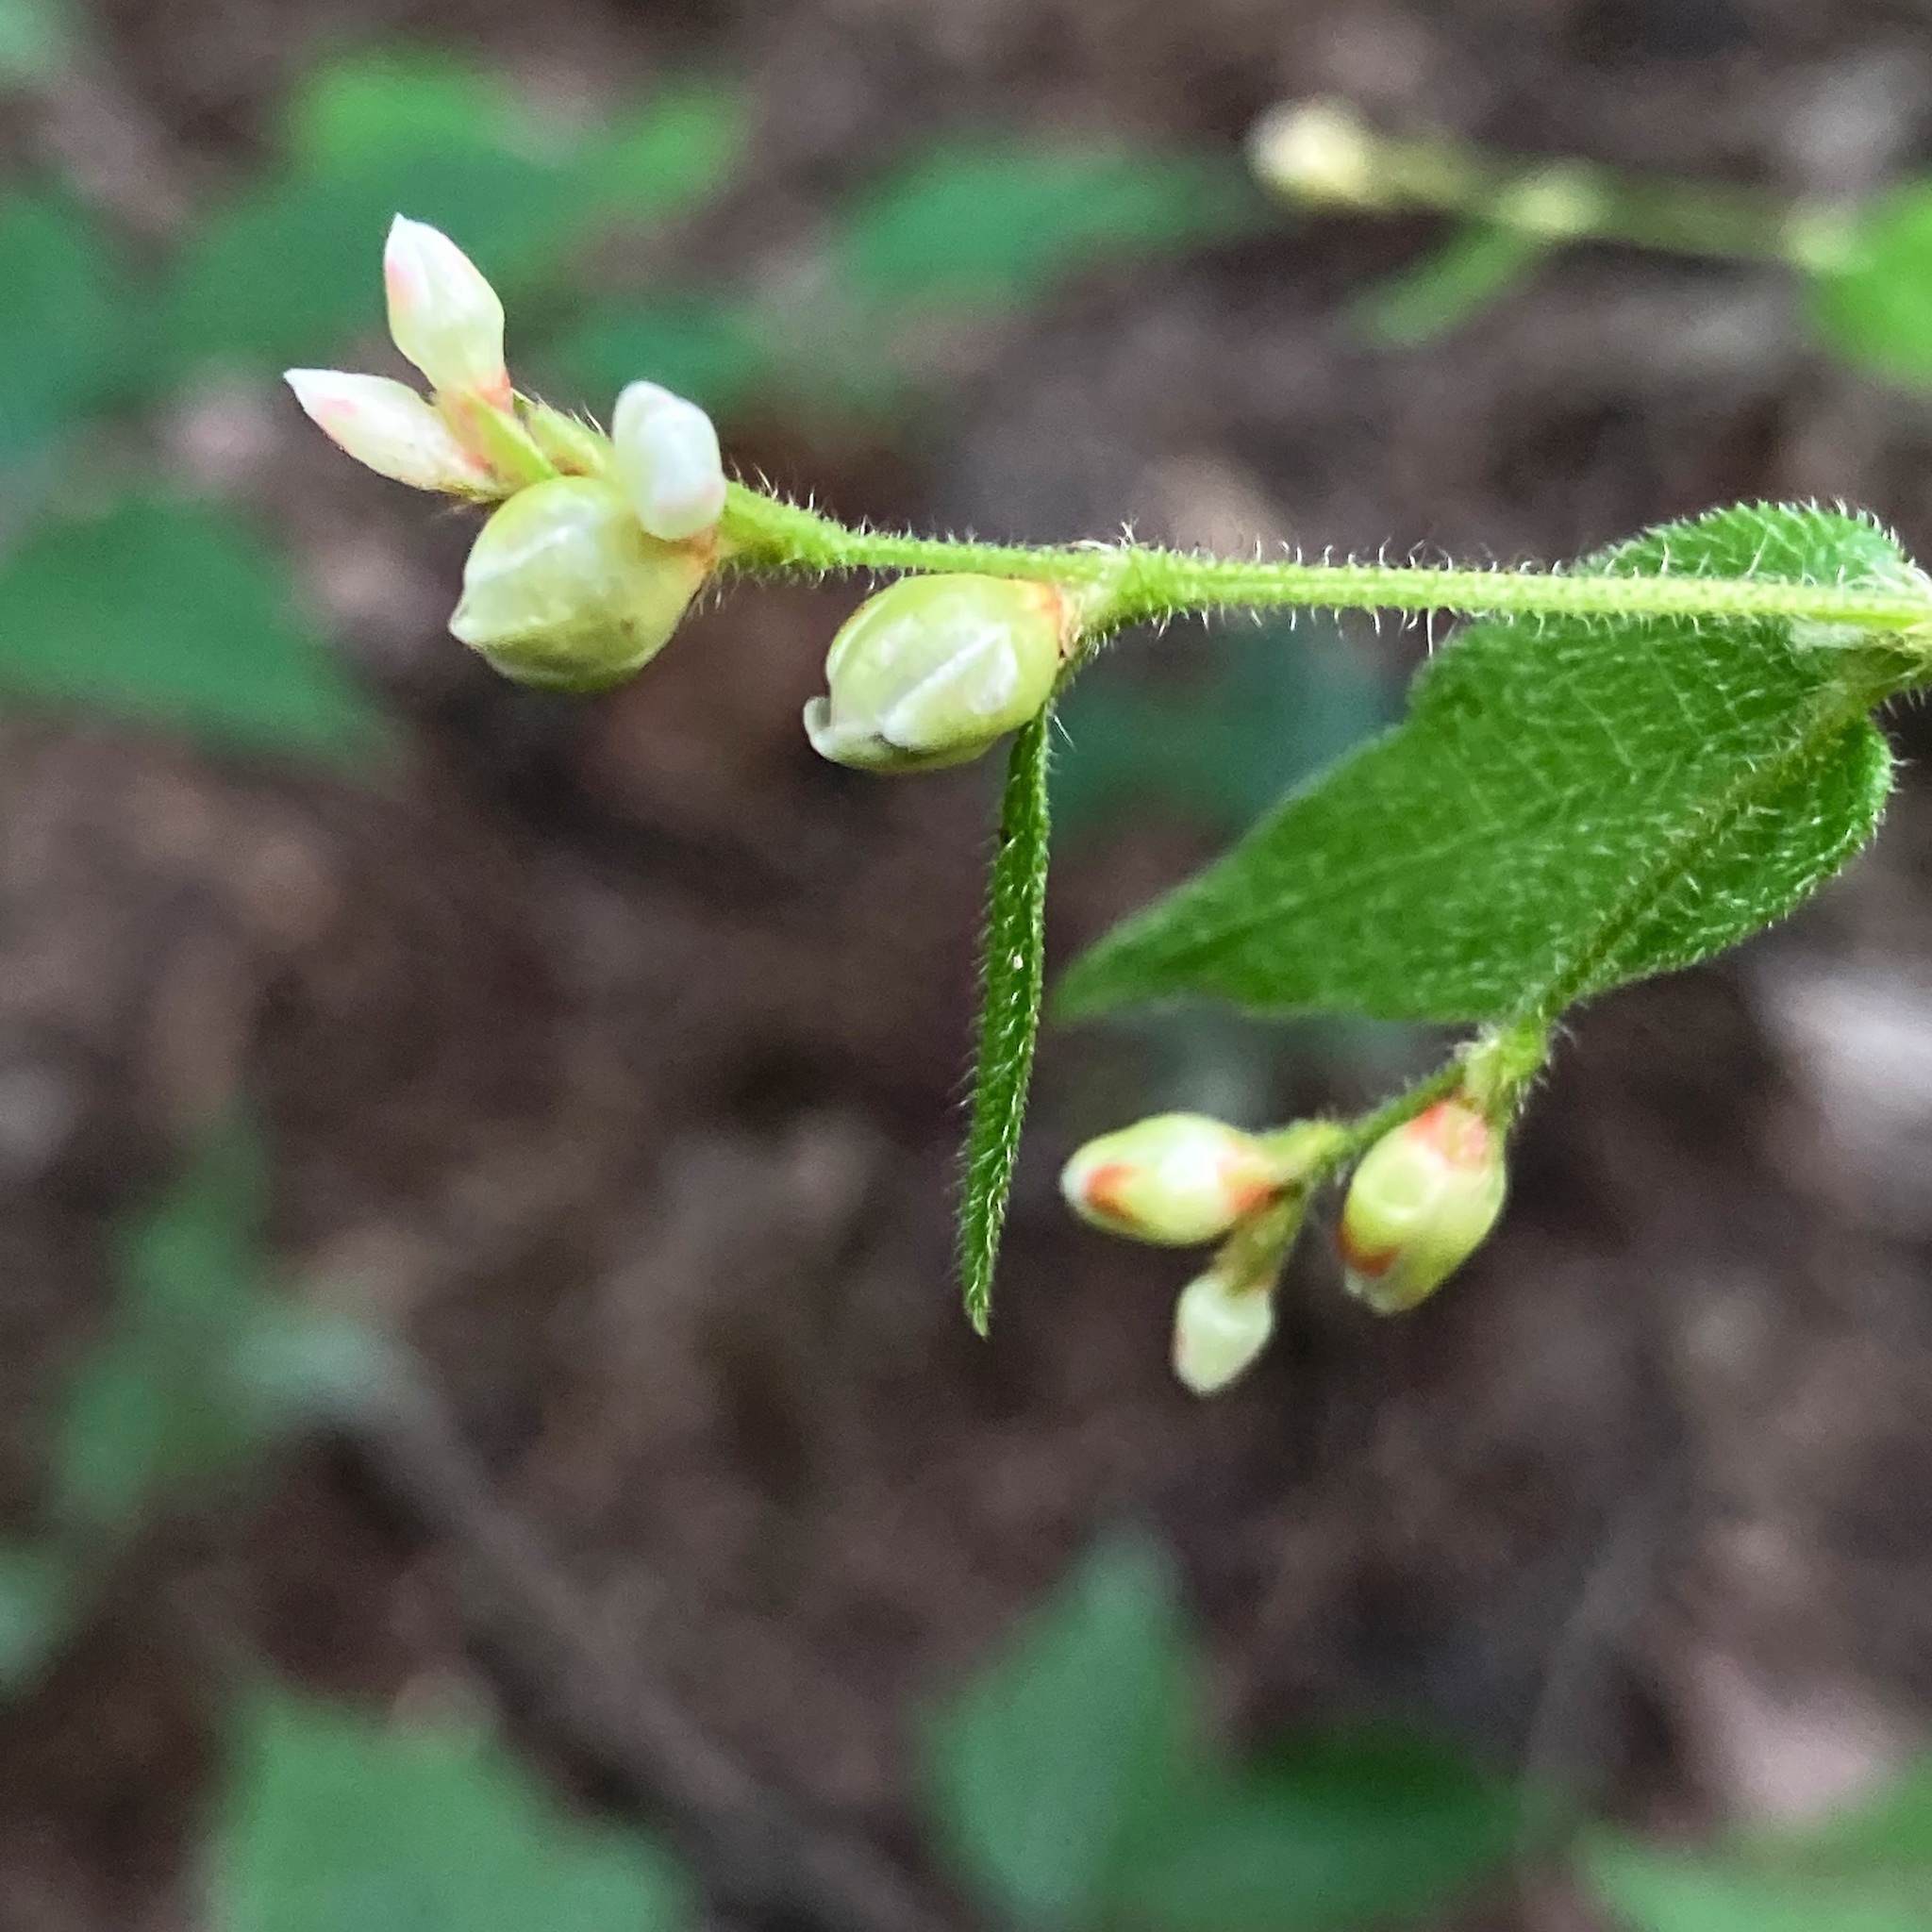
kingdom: Plantae
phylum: Tracheophyta
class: Magnoliopsida
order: Caryophyllales
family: Polygonaceae
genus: Persicaria
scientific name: Persicaria arifolia
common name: Halberd-leaved tear-thumb
